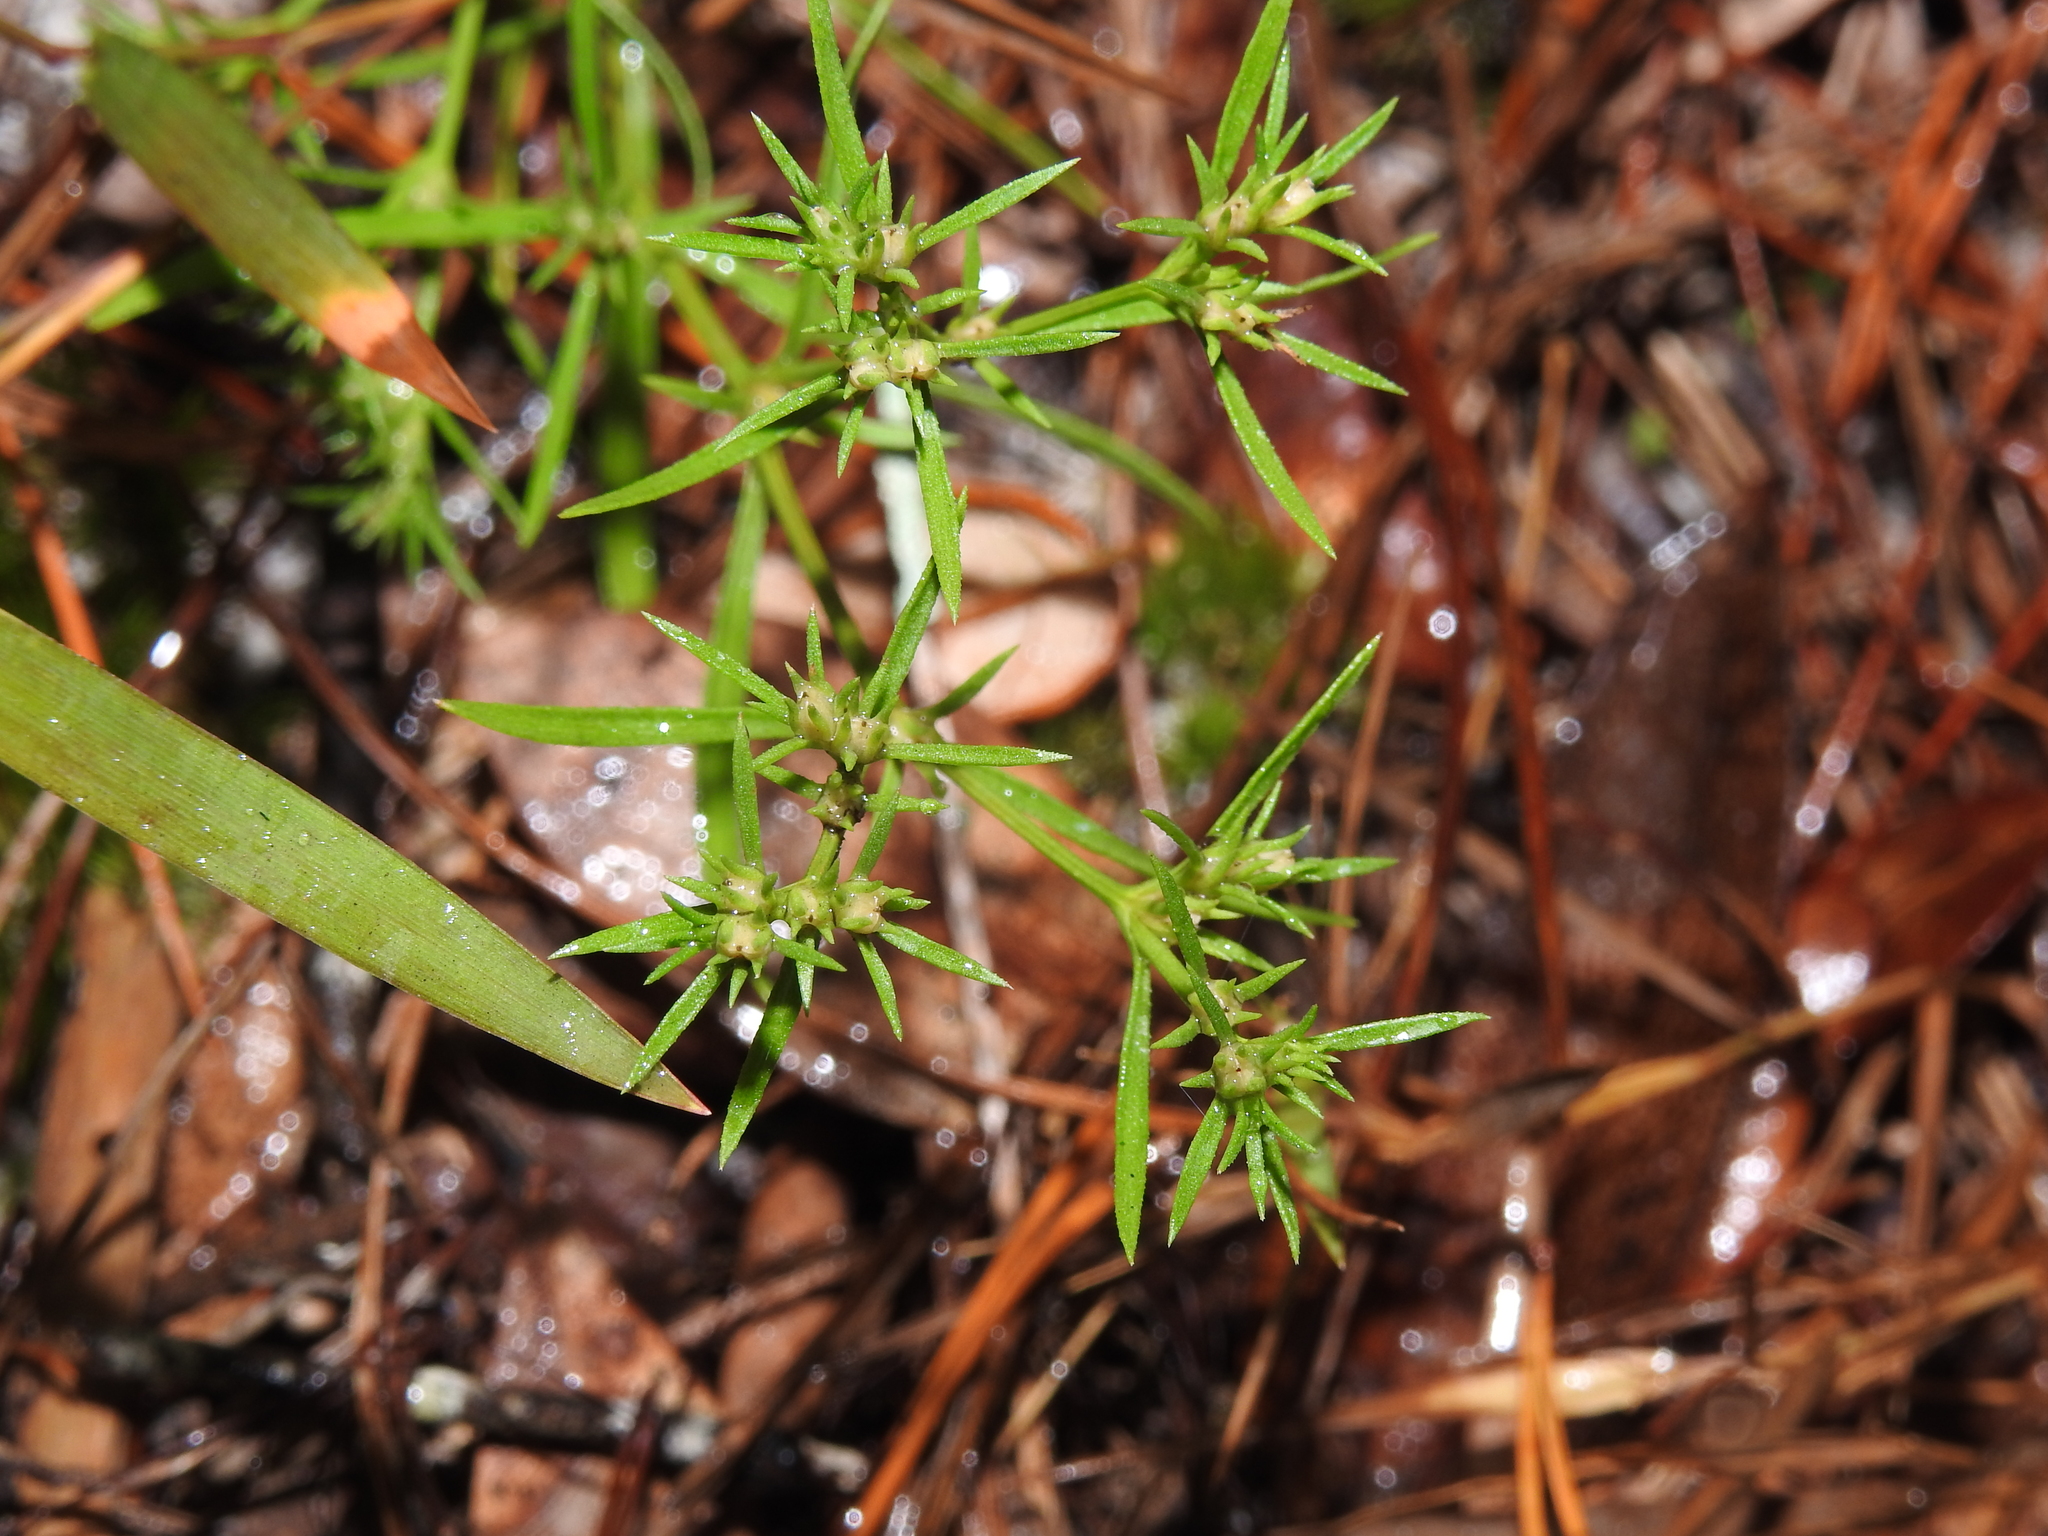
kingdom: Plantae
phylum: Tracheophyta
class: Magnoliopsida
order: Lamiales
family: Tetrachondraceae
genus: Polypremum
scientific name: Polypremum procumbens
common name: Juniper-leaf
